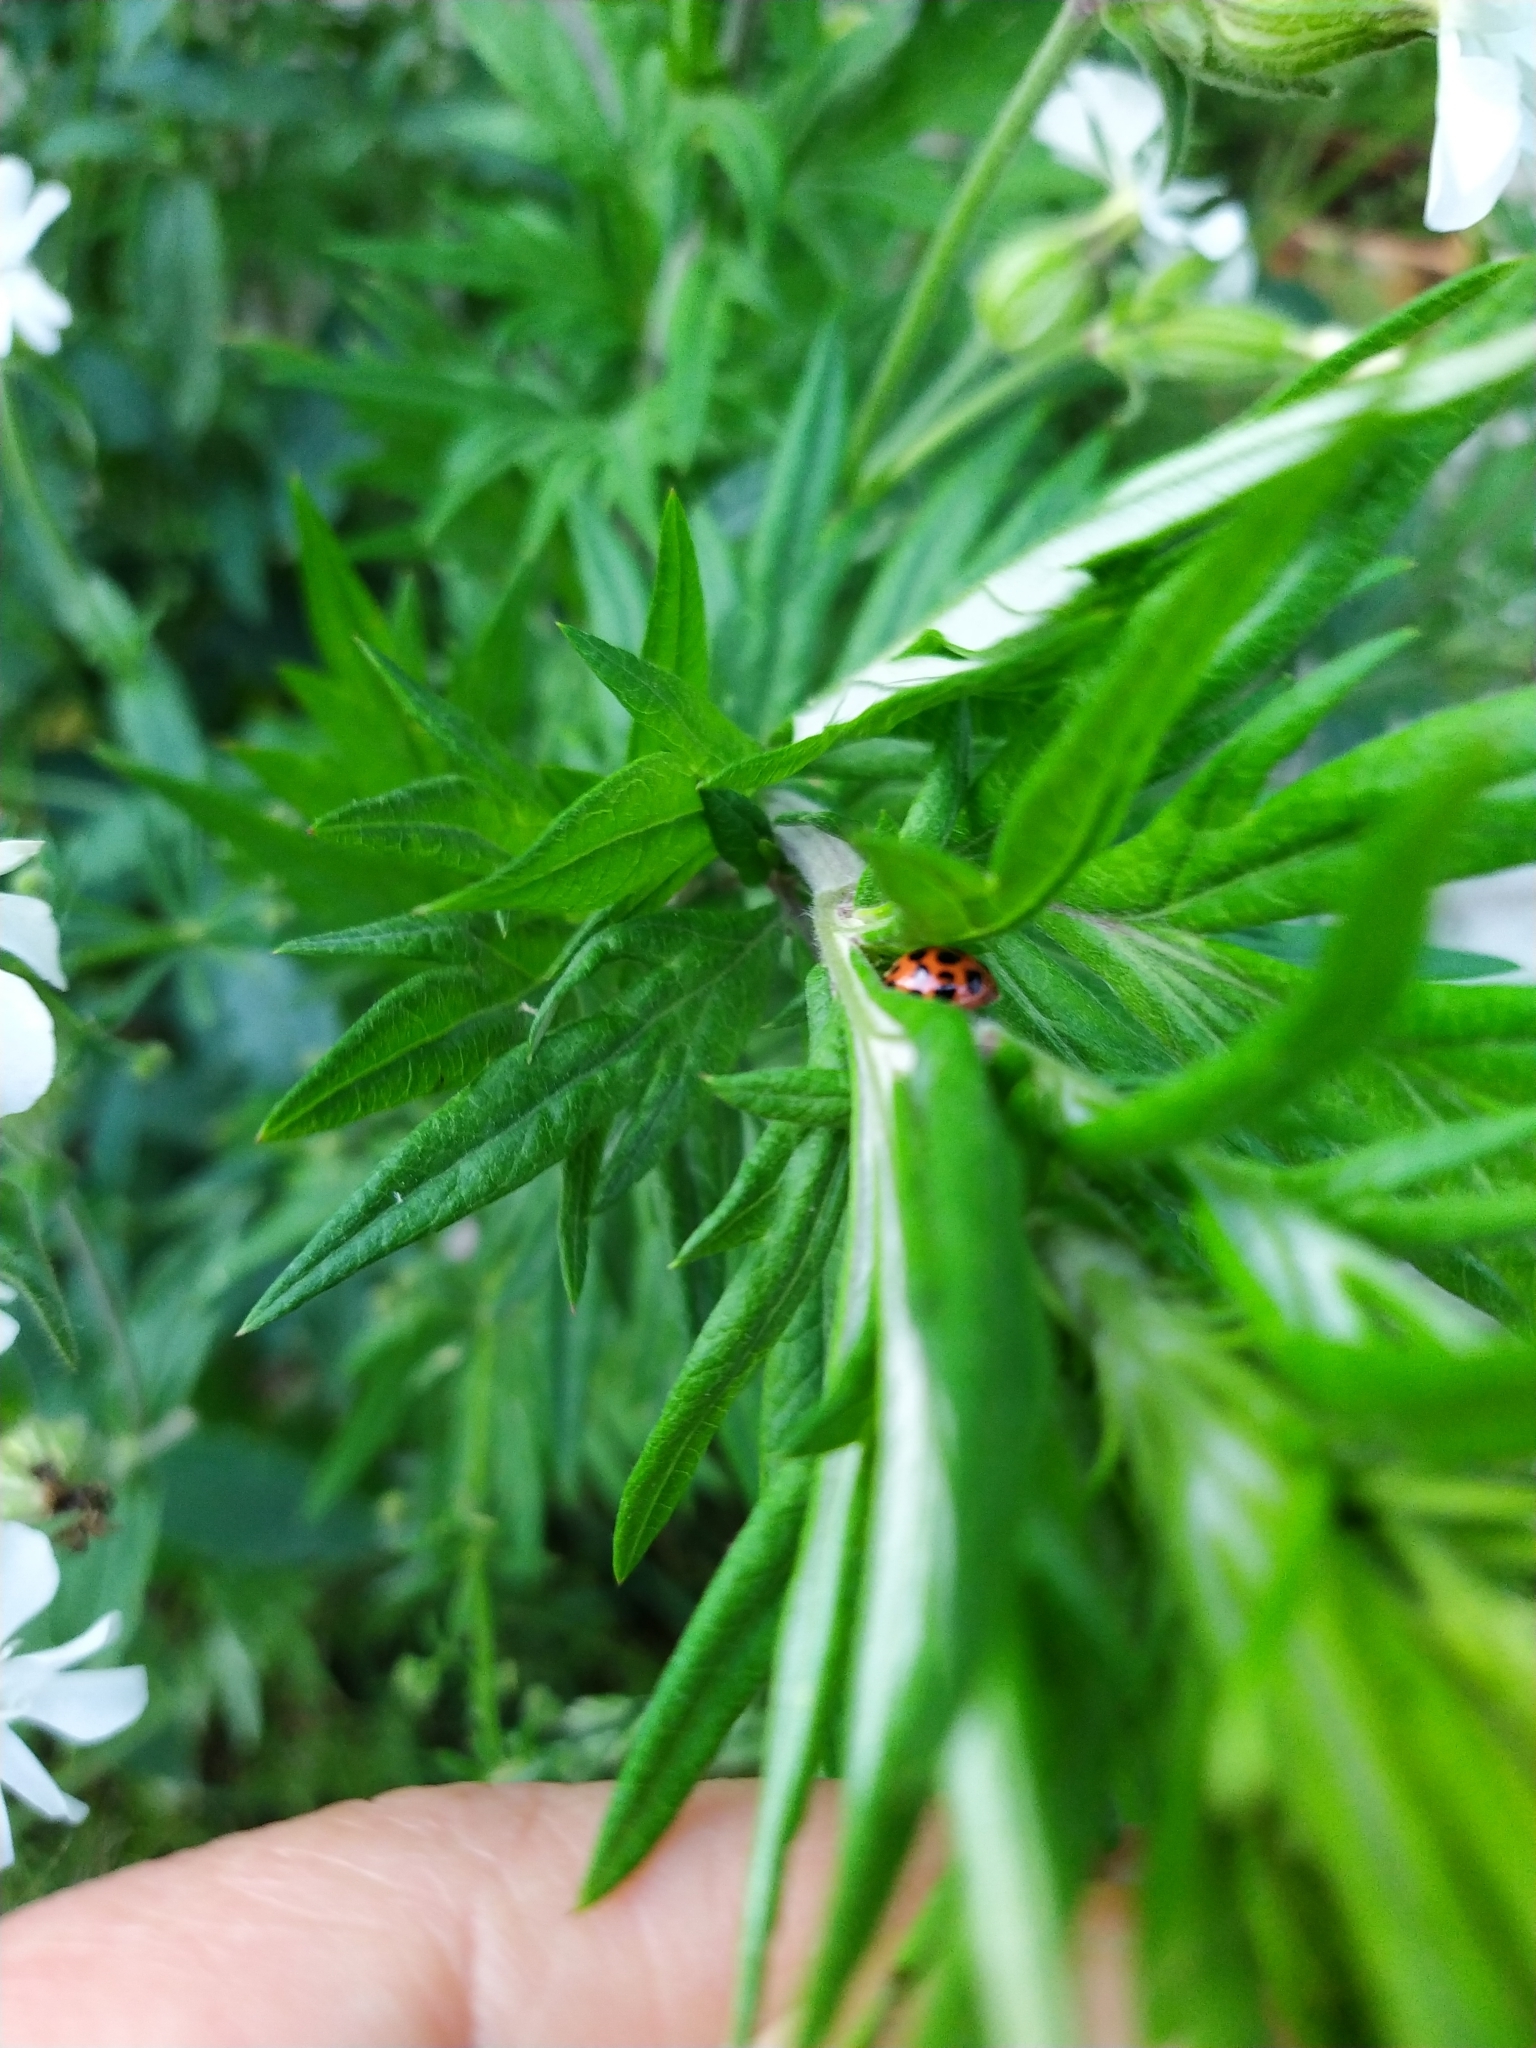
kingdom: Animalia
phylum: Arthropoda
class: Insecta
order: Coleoptera
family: Coccinellidae
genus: Harmonia
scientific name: Harmonia axyridis
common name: Harlequin ladybird
